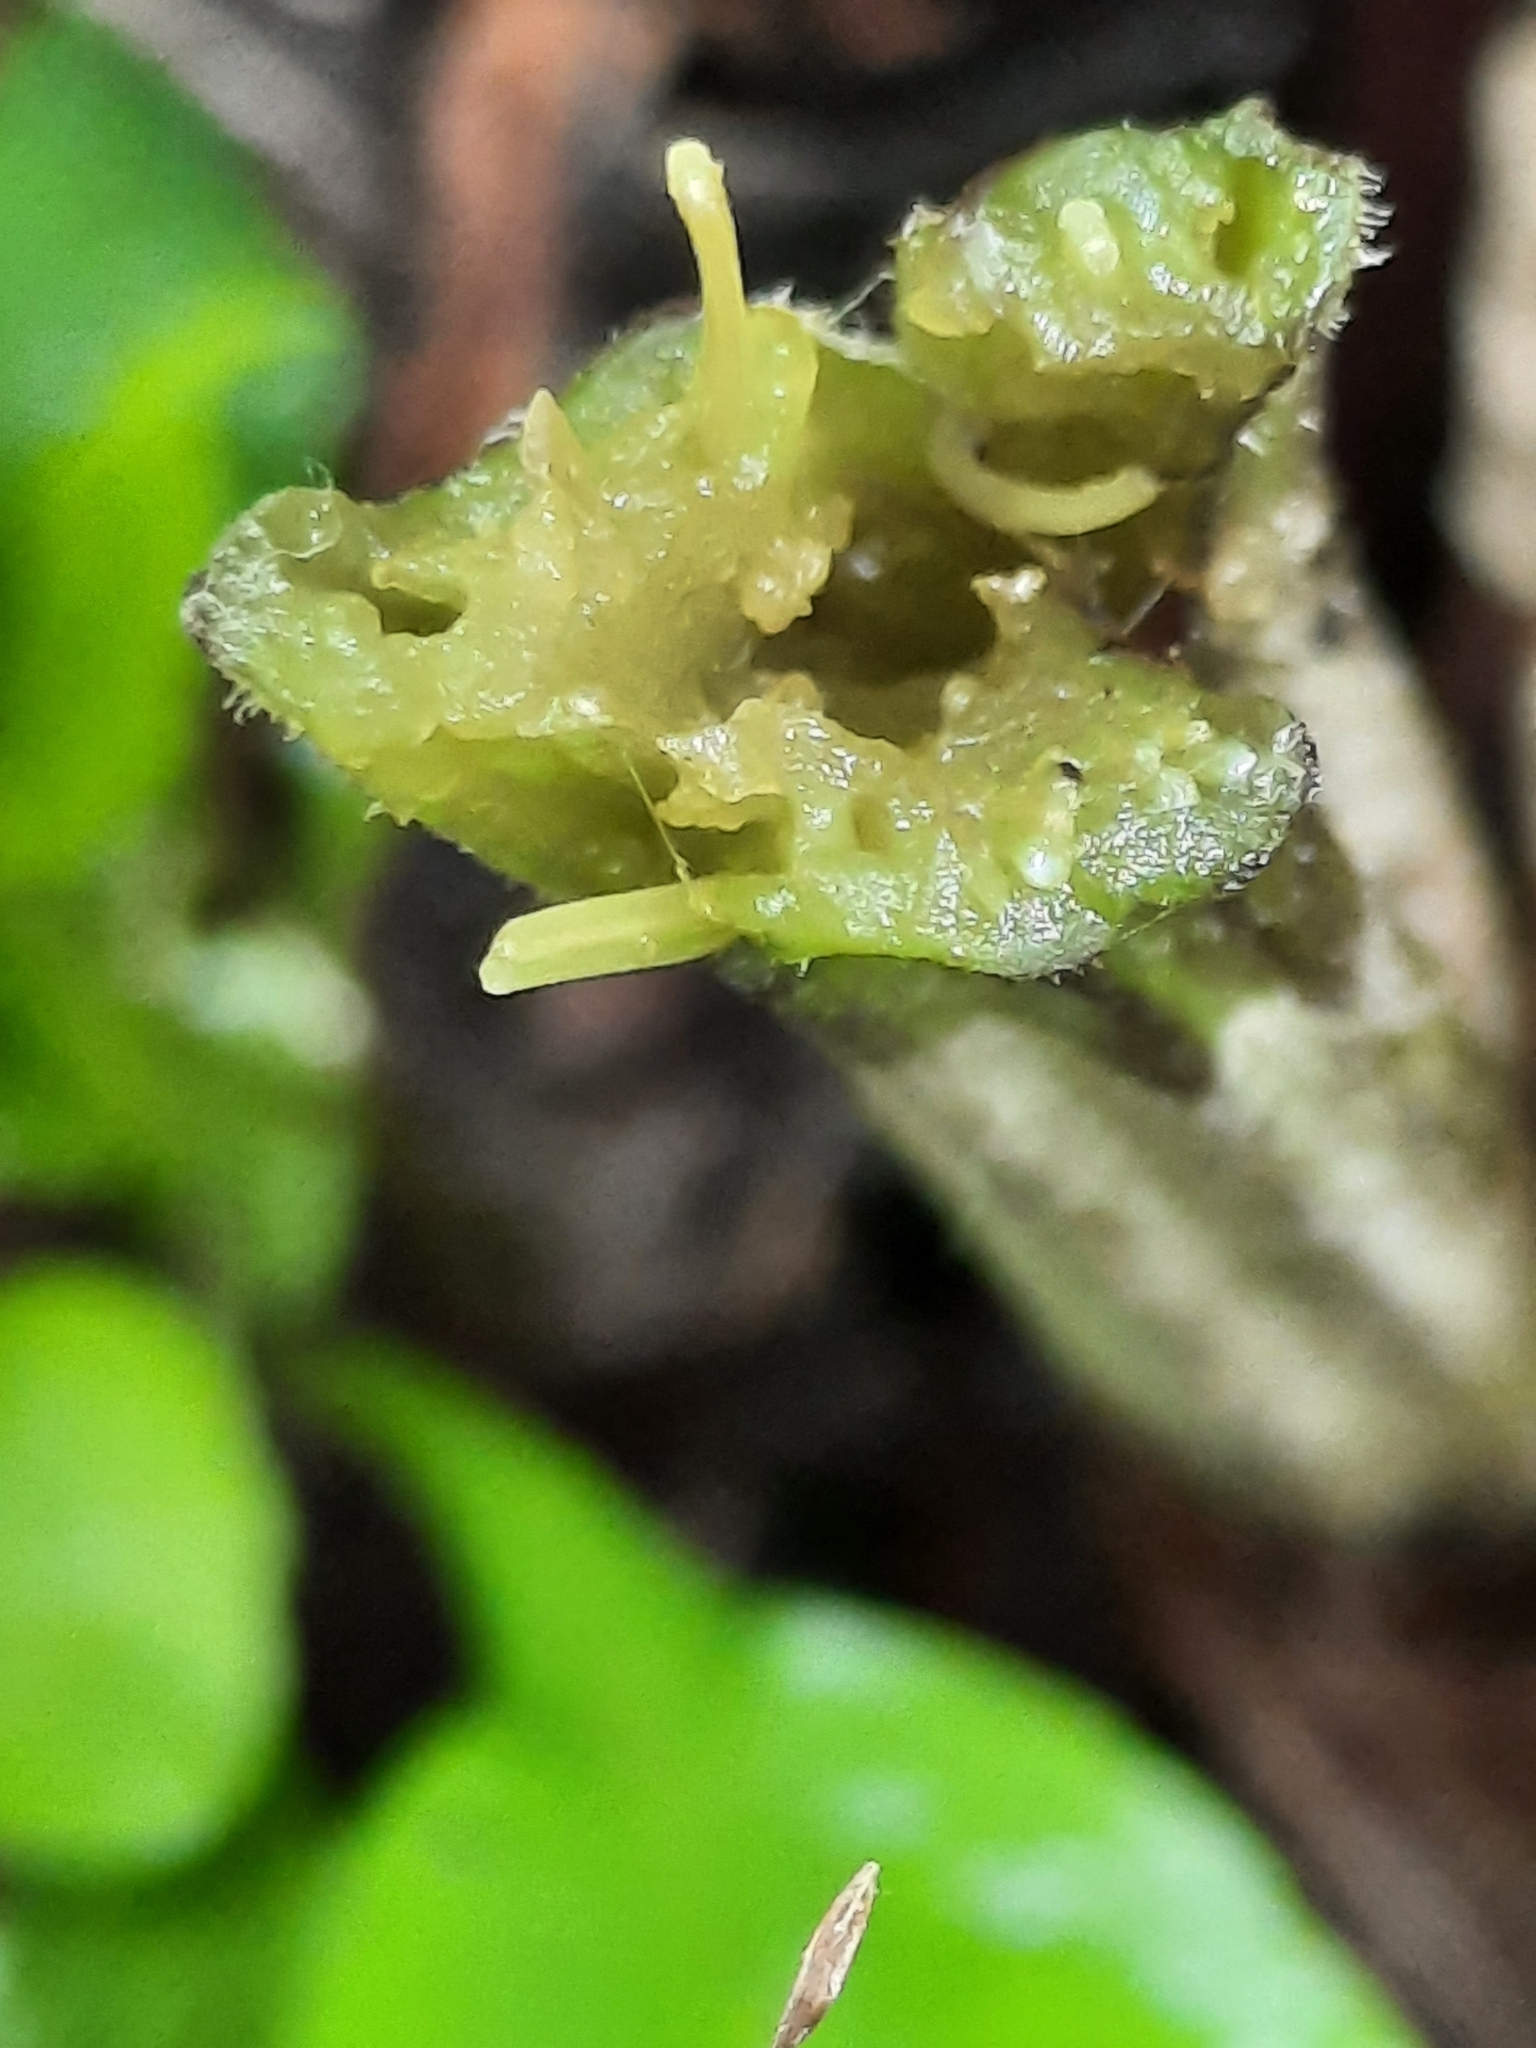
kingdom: Plantae
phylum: Tracheophyta
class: Magnoliopsida
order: Asterales
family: Asteraceae
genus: Arctium
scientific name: Arctium minus
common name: Lesser burdock
